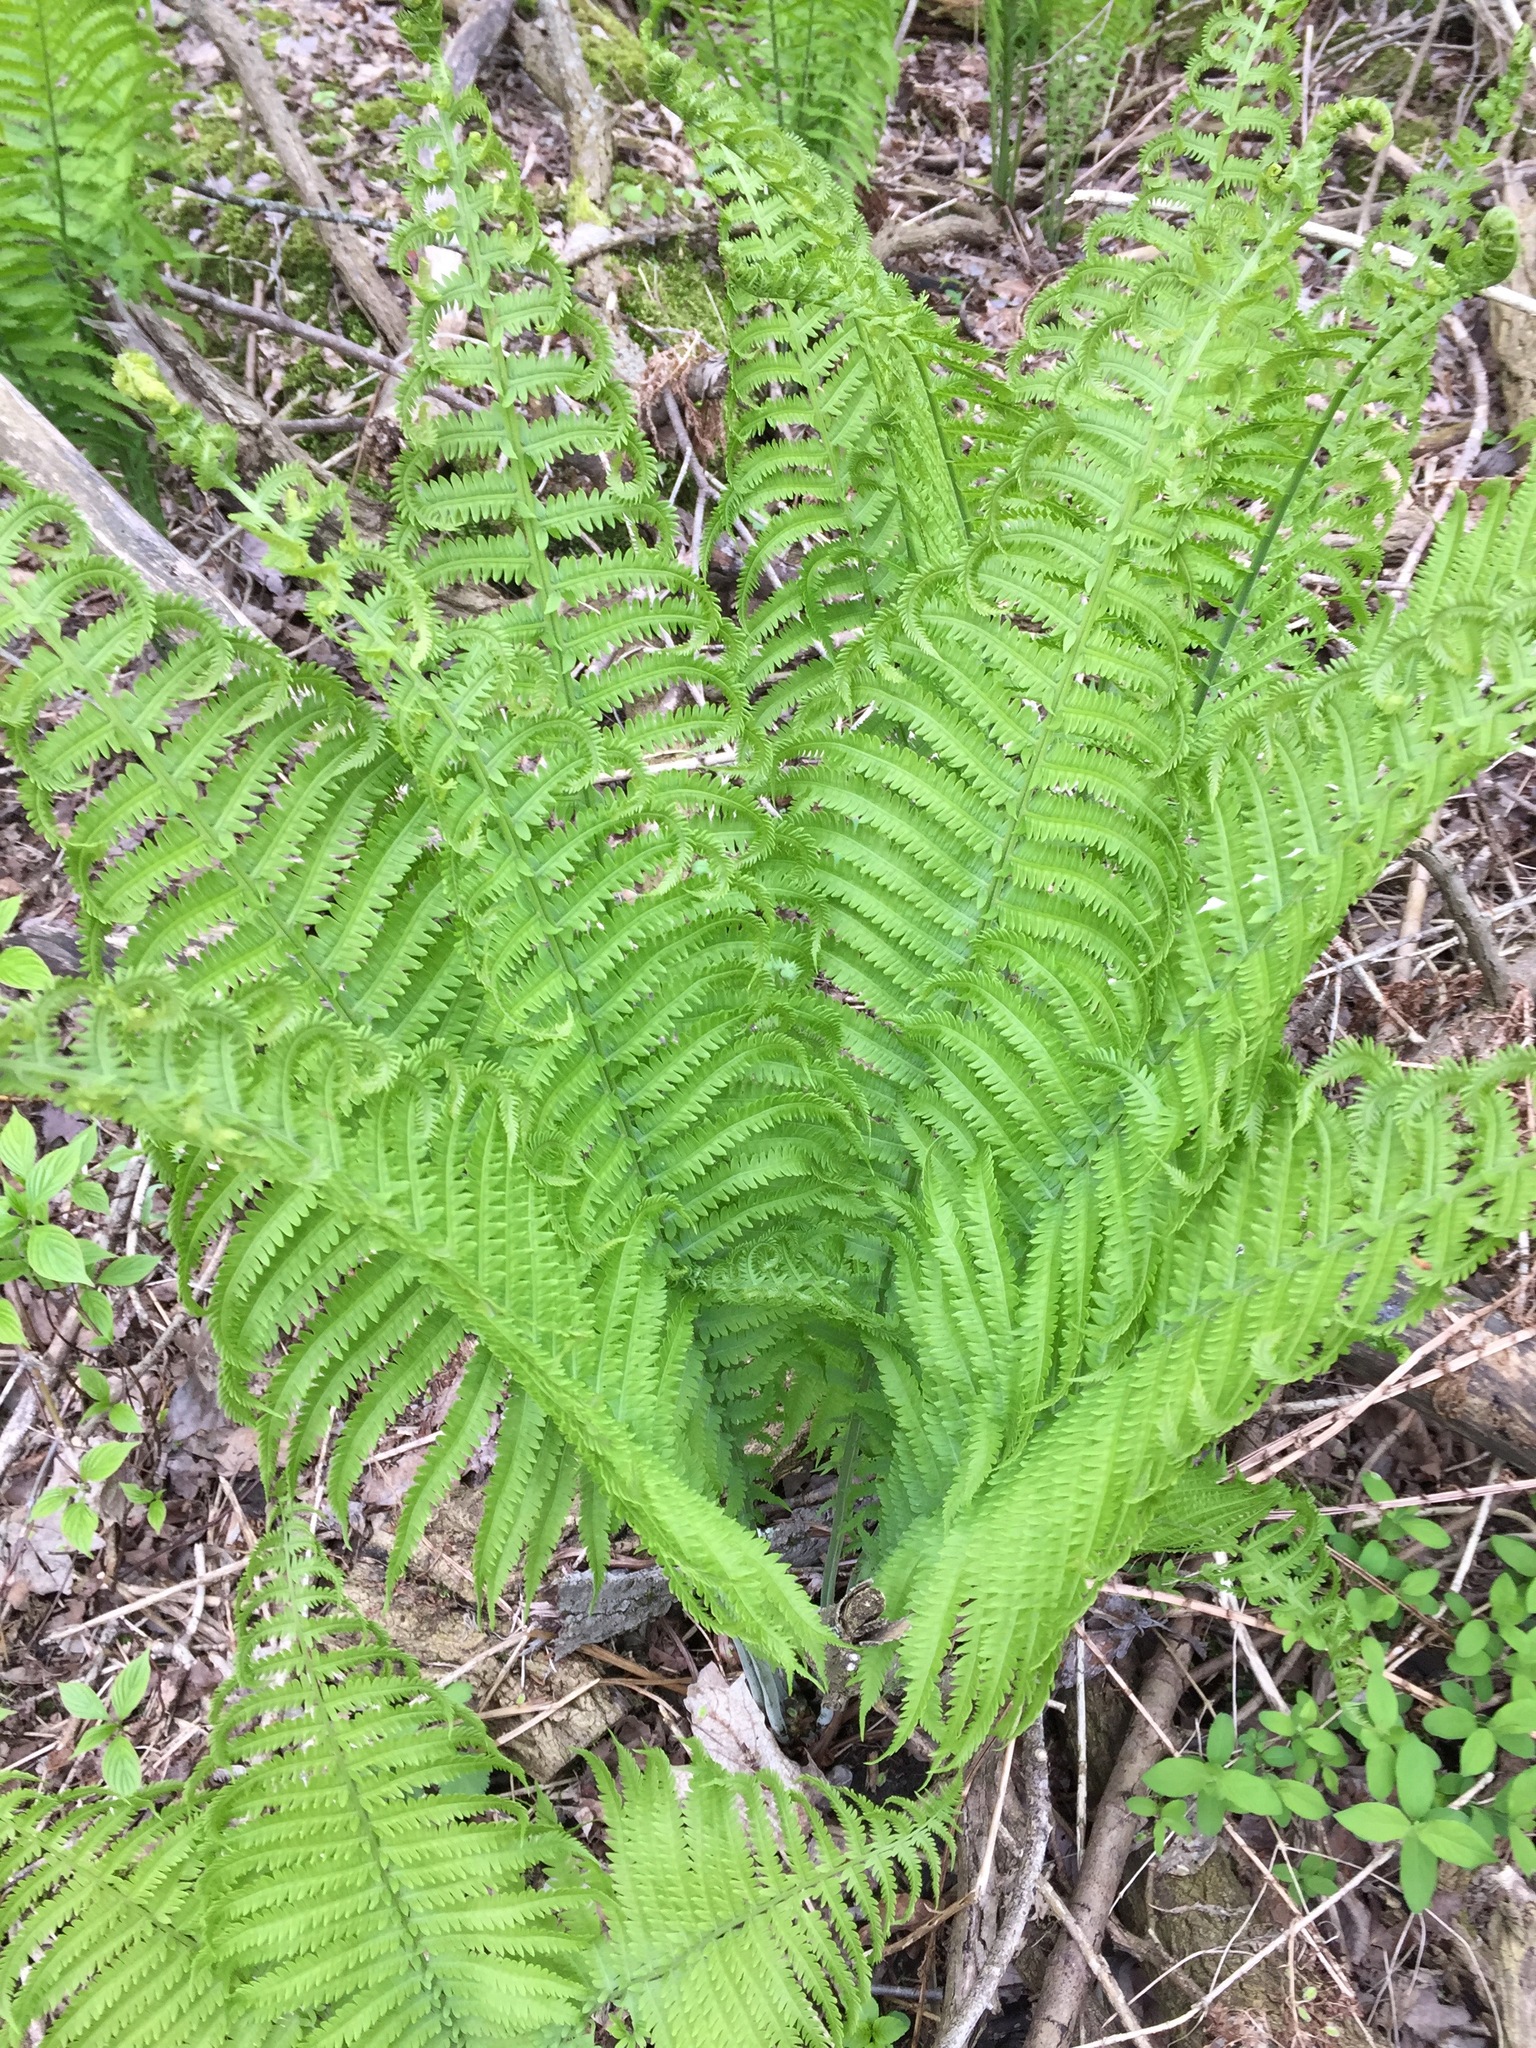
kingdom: Plantae
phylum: Tracheophyta
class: Polypodiopsida
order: Polypodiales
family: Onocleaceae
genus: Matteuccia
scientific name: Matteuccia struthiopteris
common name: Ostrich fern
